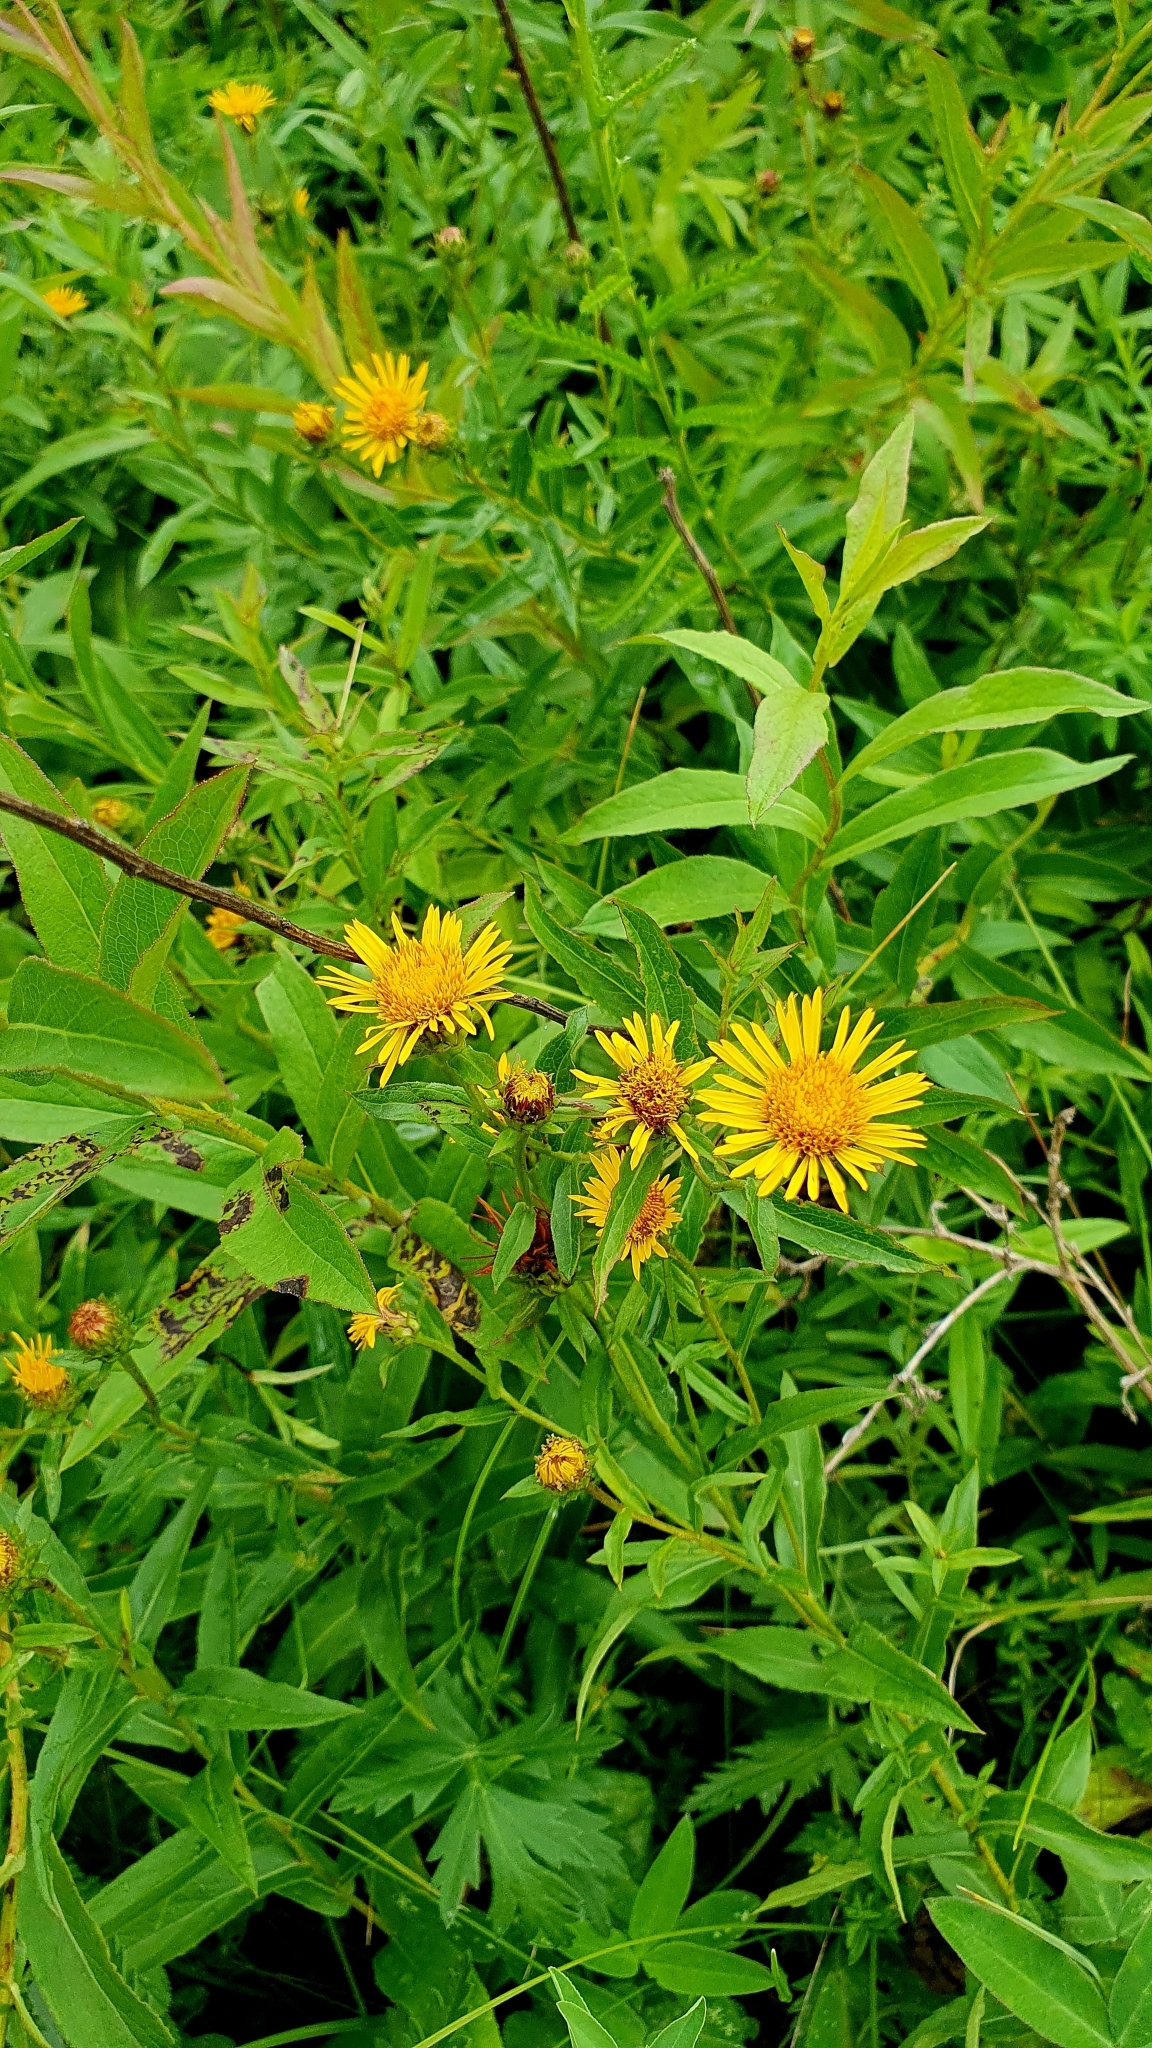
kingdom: Plantae
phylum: Tracheophyta
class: Magnoliopsida
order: Asterales
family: Asteraceae
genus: Pentanema
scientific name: Pentanema salicinum
